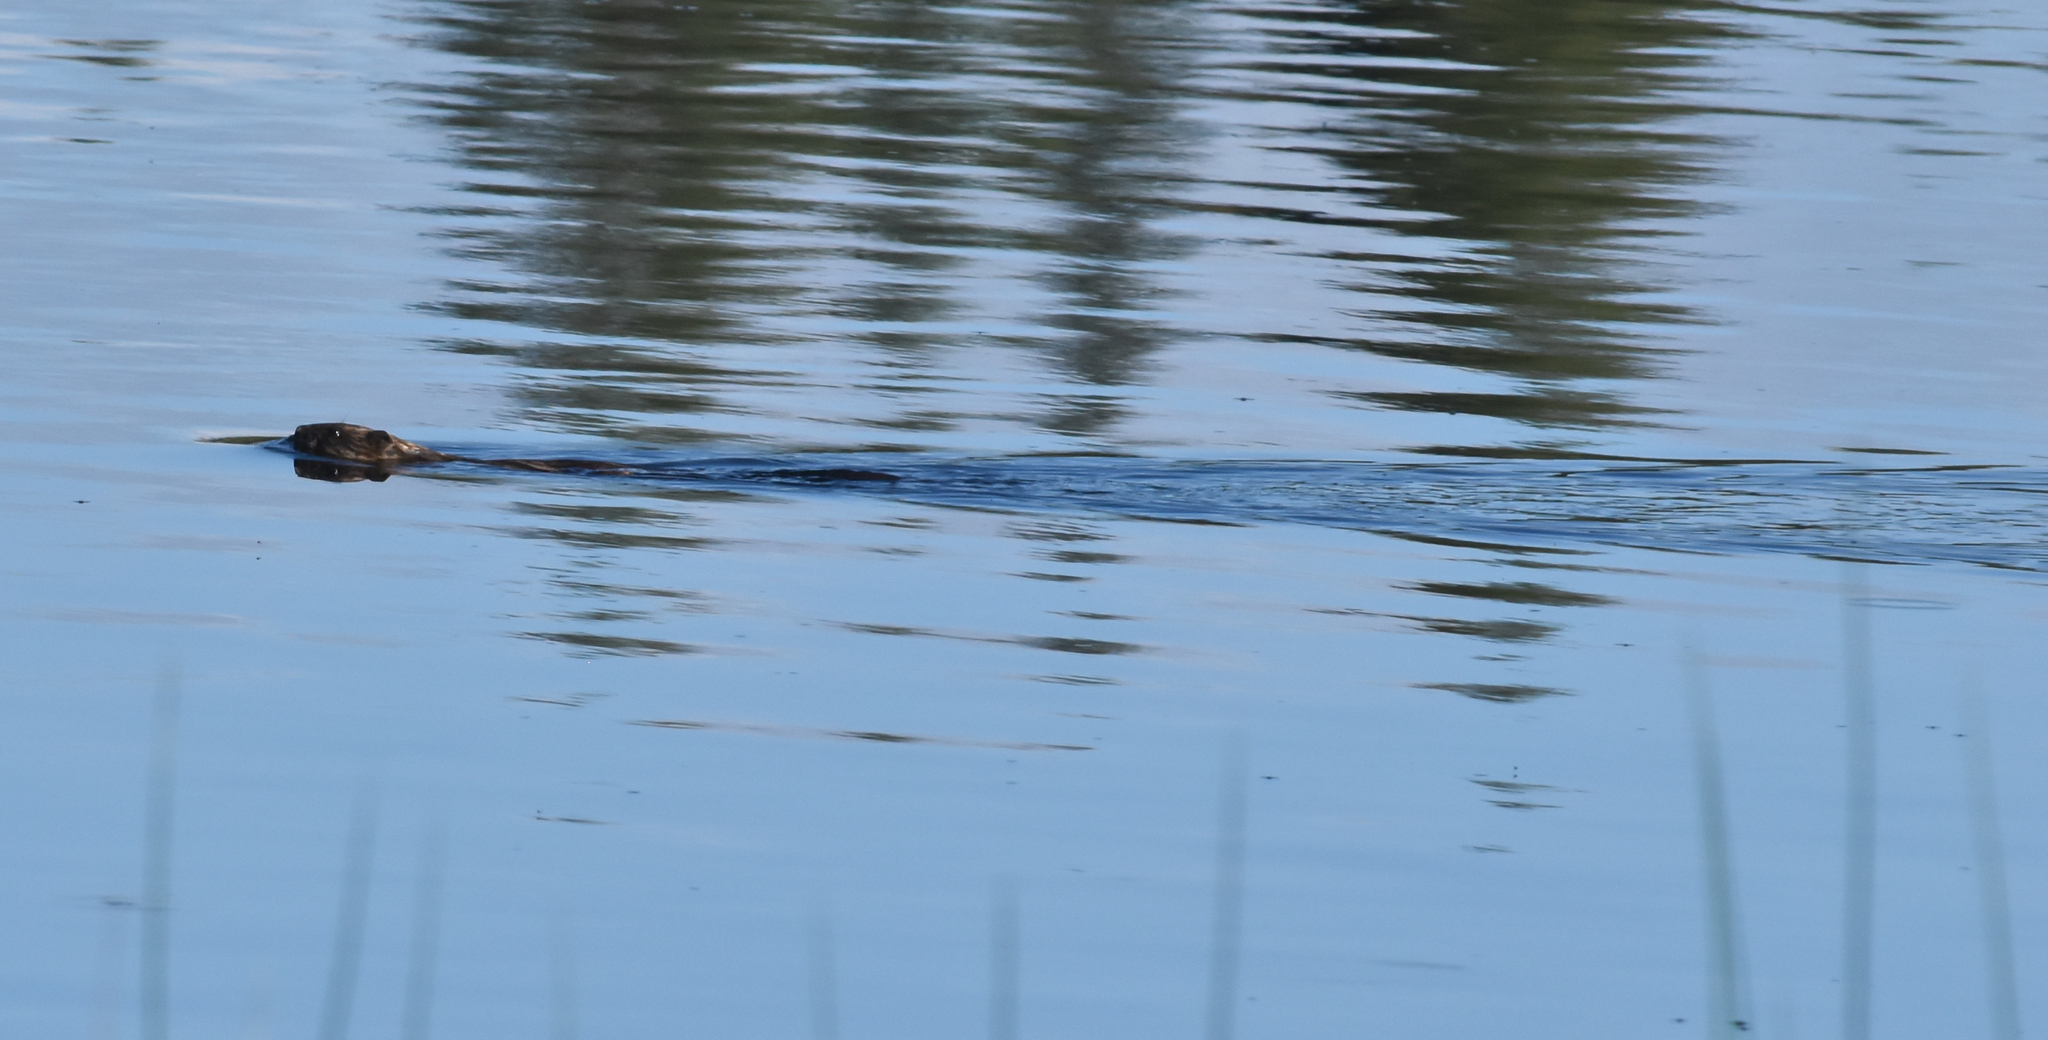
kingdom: Animalia
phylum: Chordata
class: Mammalia
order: Rodentia
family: Cricetidae
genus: Ondatra
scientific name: Ondatra zibethicus
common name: Muskrat
